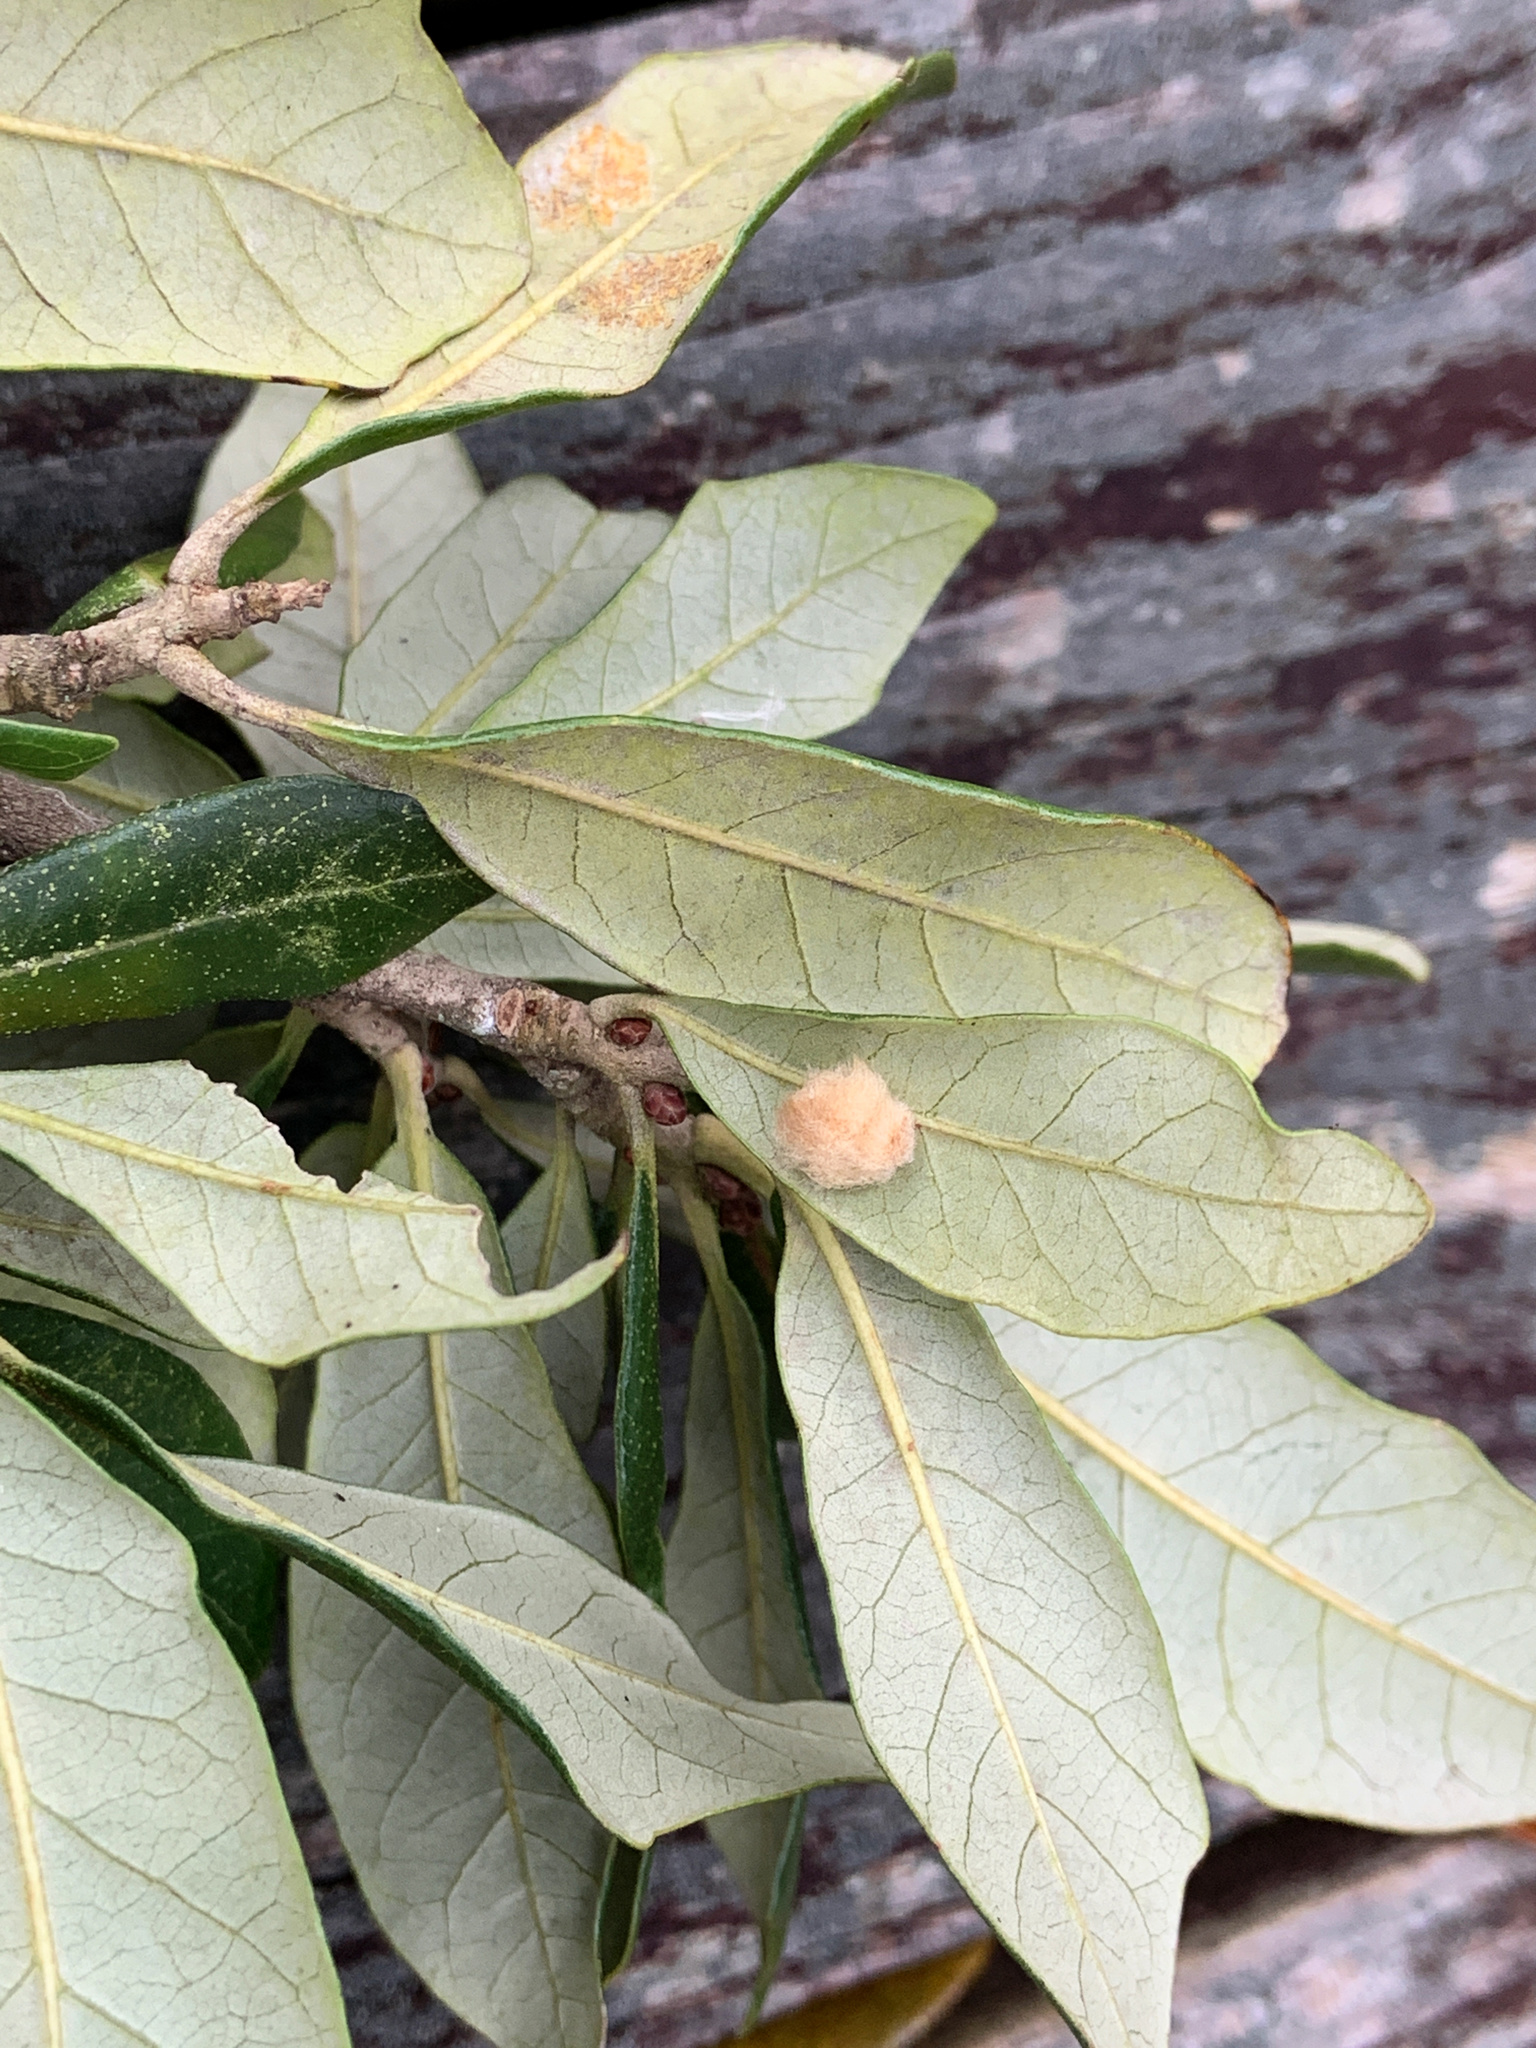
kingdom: Animalia
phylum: Arthropoda
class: Insecta
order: Hymenoptera
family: Cynipidae
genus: Andricus
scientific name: Andricus Druon quercuslanigerum
